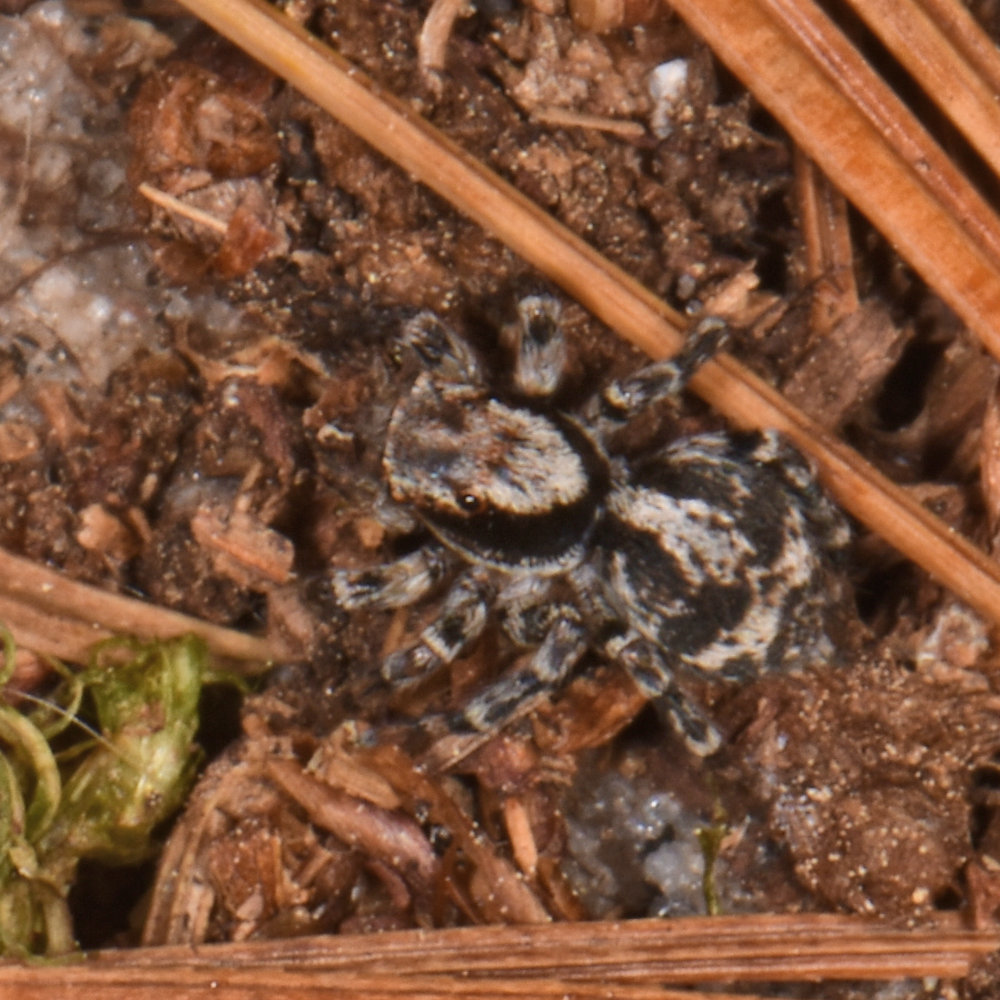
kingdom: Animalia
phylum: Arthropoda
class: Arachnida
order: Araneae
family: Salticidae
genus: Naphrys
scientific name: Naphrys pulex
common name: Flea jumping spider
